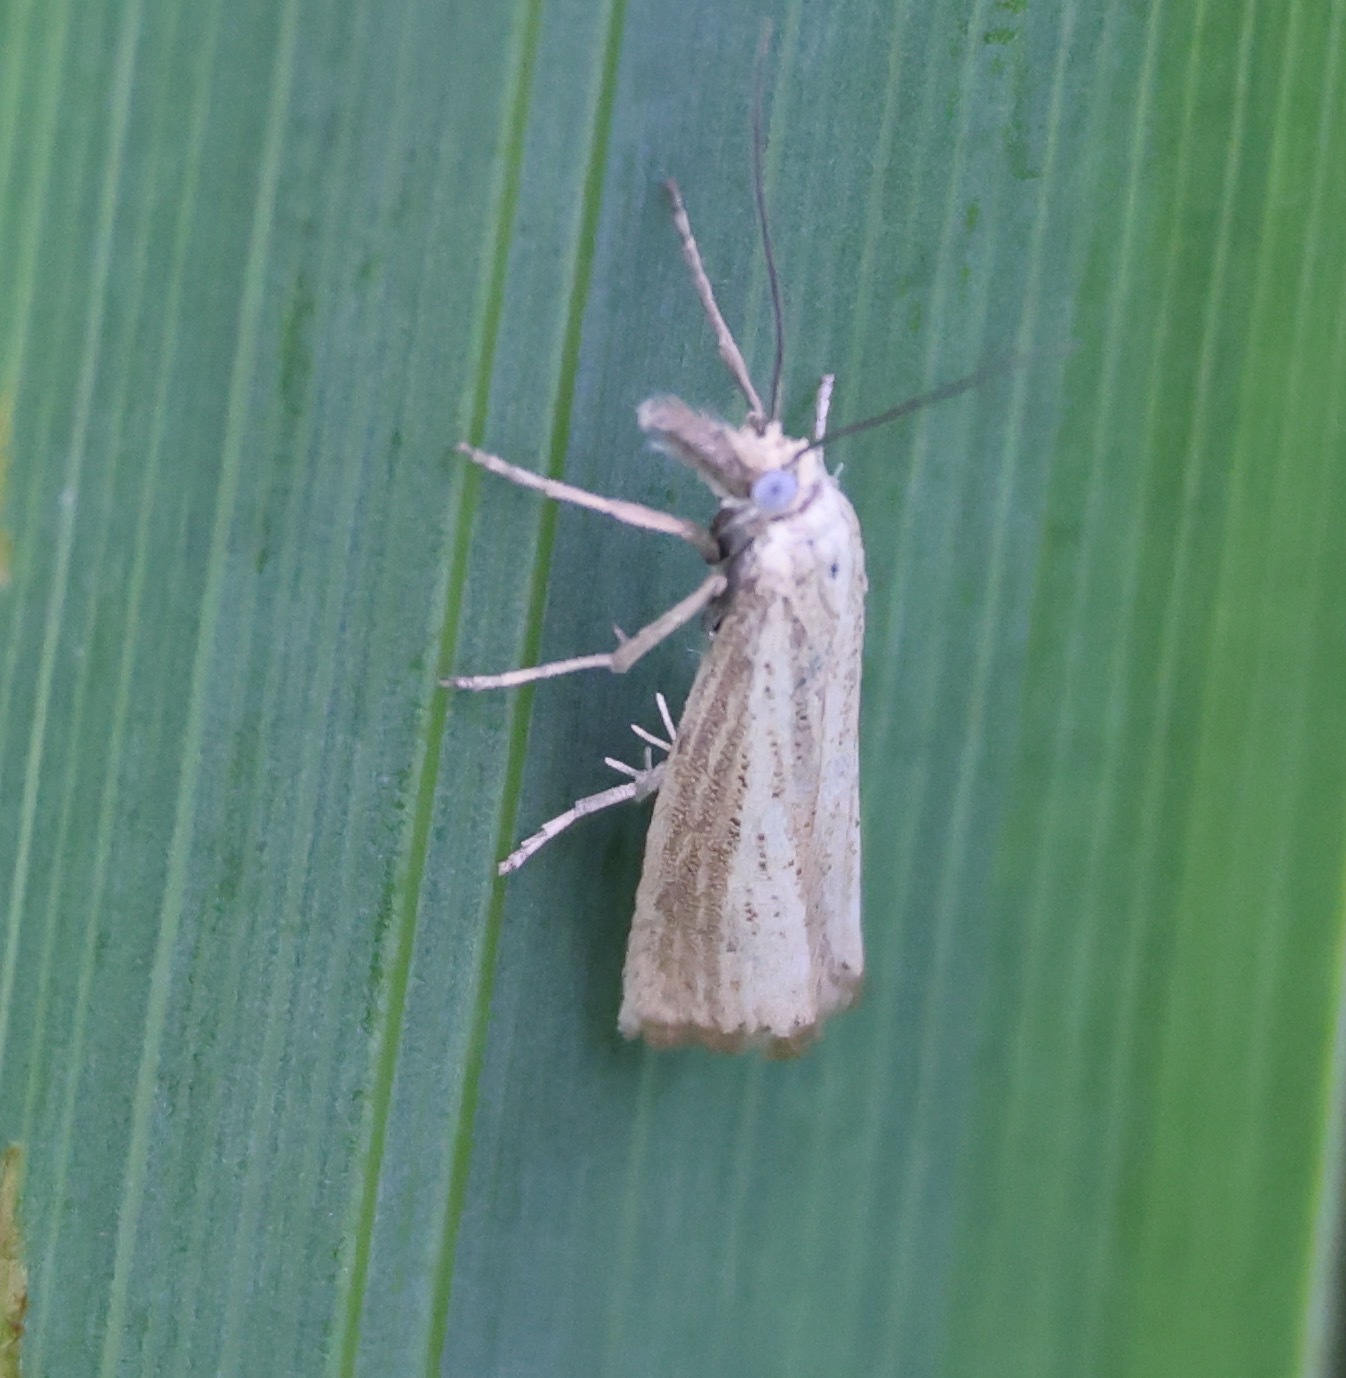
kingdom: Animalia
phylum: Arthropoda
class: Insecta
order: Lepidoptera
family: Crambidae
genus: Agriphila
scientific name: Agriphila straminella
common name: Straw grass-veneer
